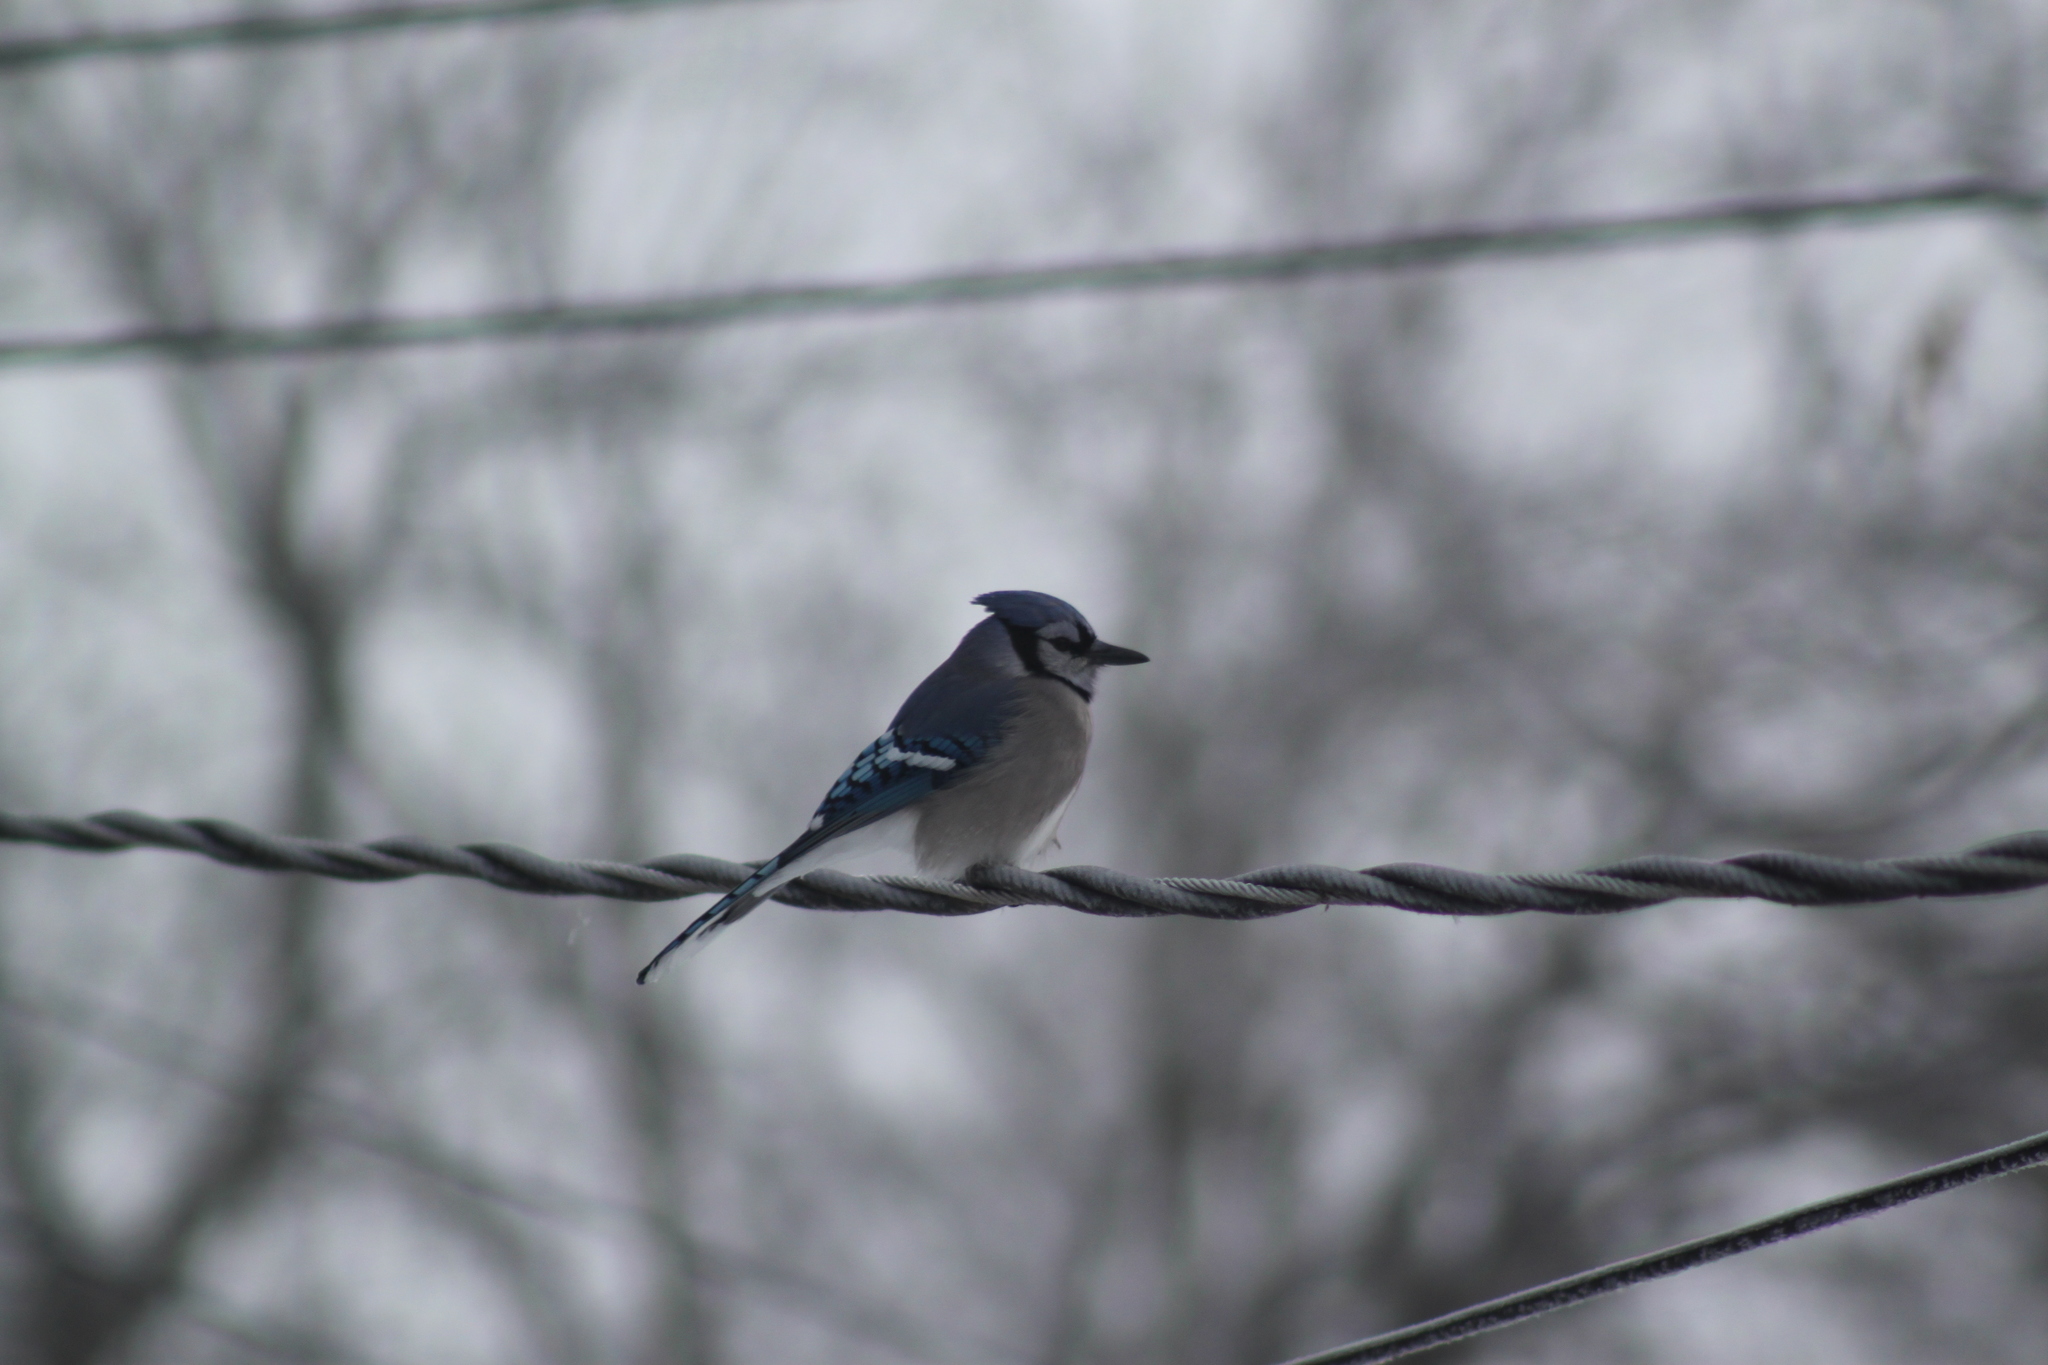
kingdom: Animalia
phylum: Chordata
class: Aves
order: Passeriformes
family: Corvidae
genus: Cyanocitta
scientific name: Cyanocitta cristata
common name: Blue jay
